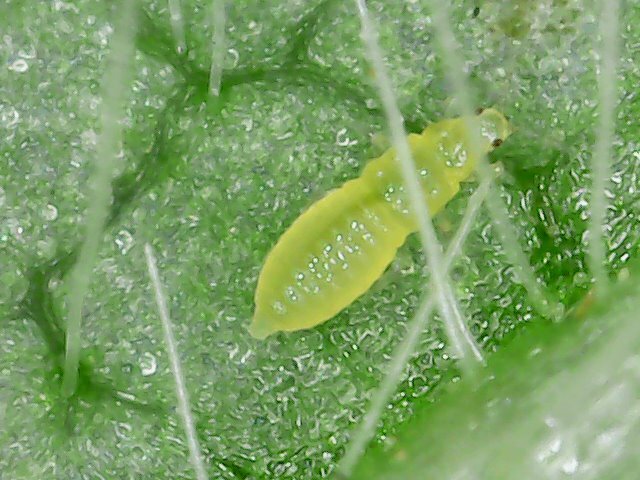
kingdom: Animalia
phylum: Arthropoda
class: Insecta
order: Thysanoptera
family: Thripidae
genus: Scirtothrips
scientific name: Scirtothrips dorsalis
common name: Thrips
